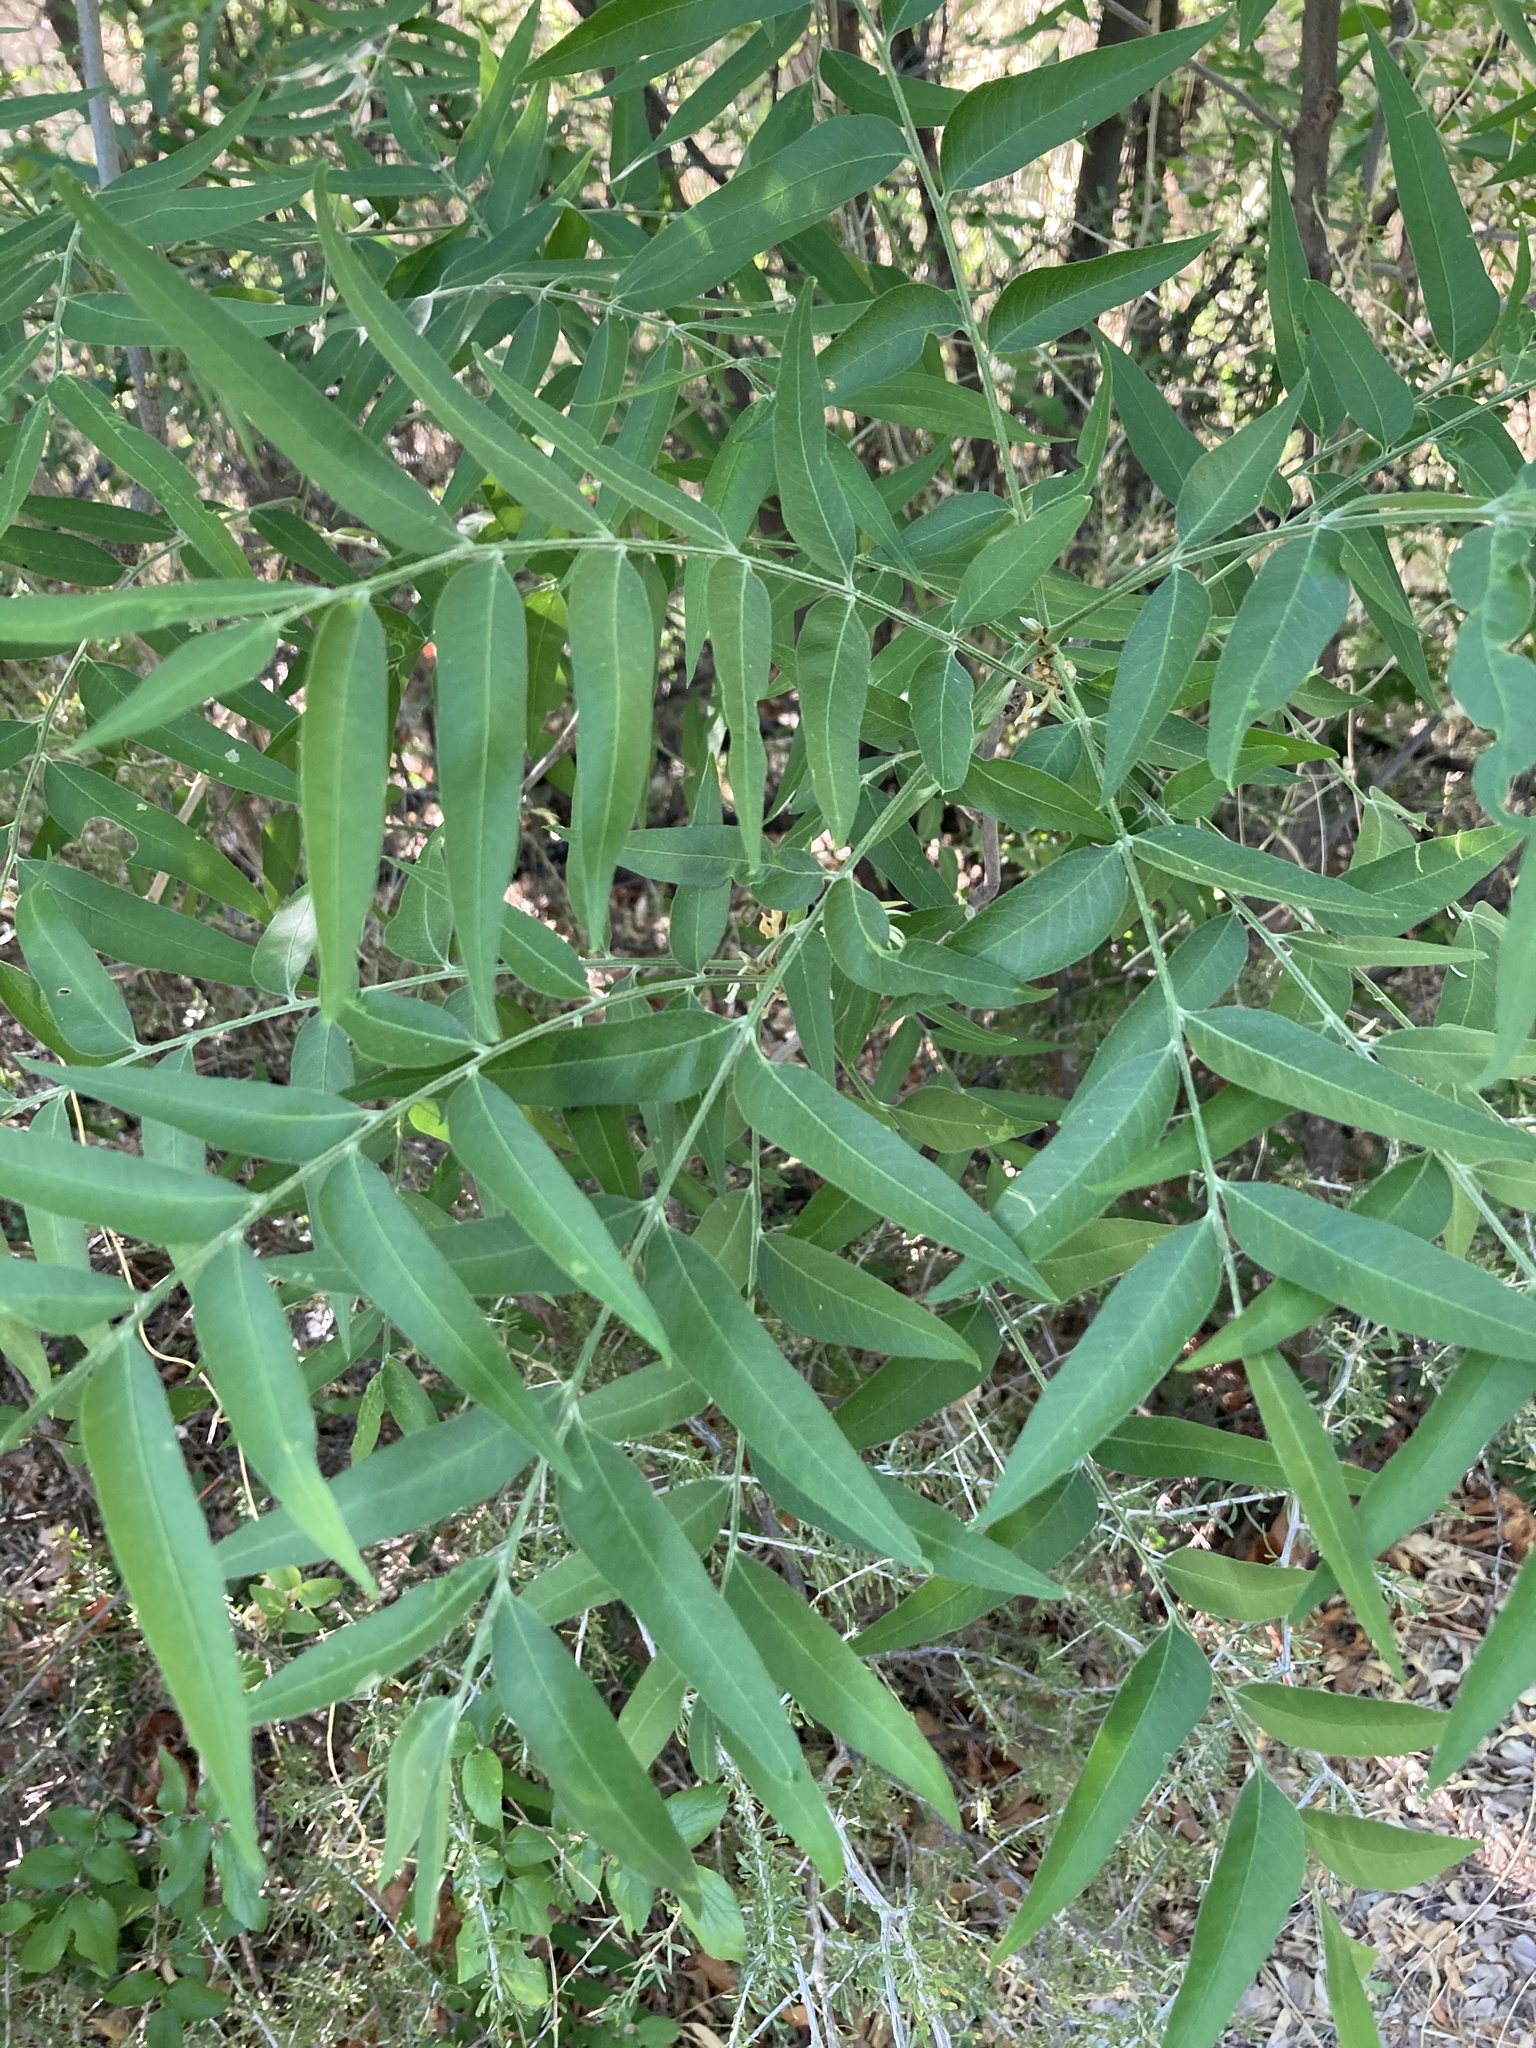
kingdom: Plantae
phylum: Tracheophyta
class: Magnoliopsida
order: Sapindales
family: Sapindaceae
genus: Sapindus
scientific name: Sapindus drummondii
